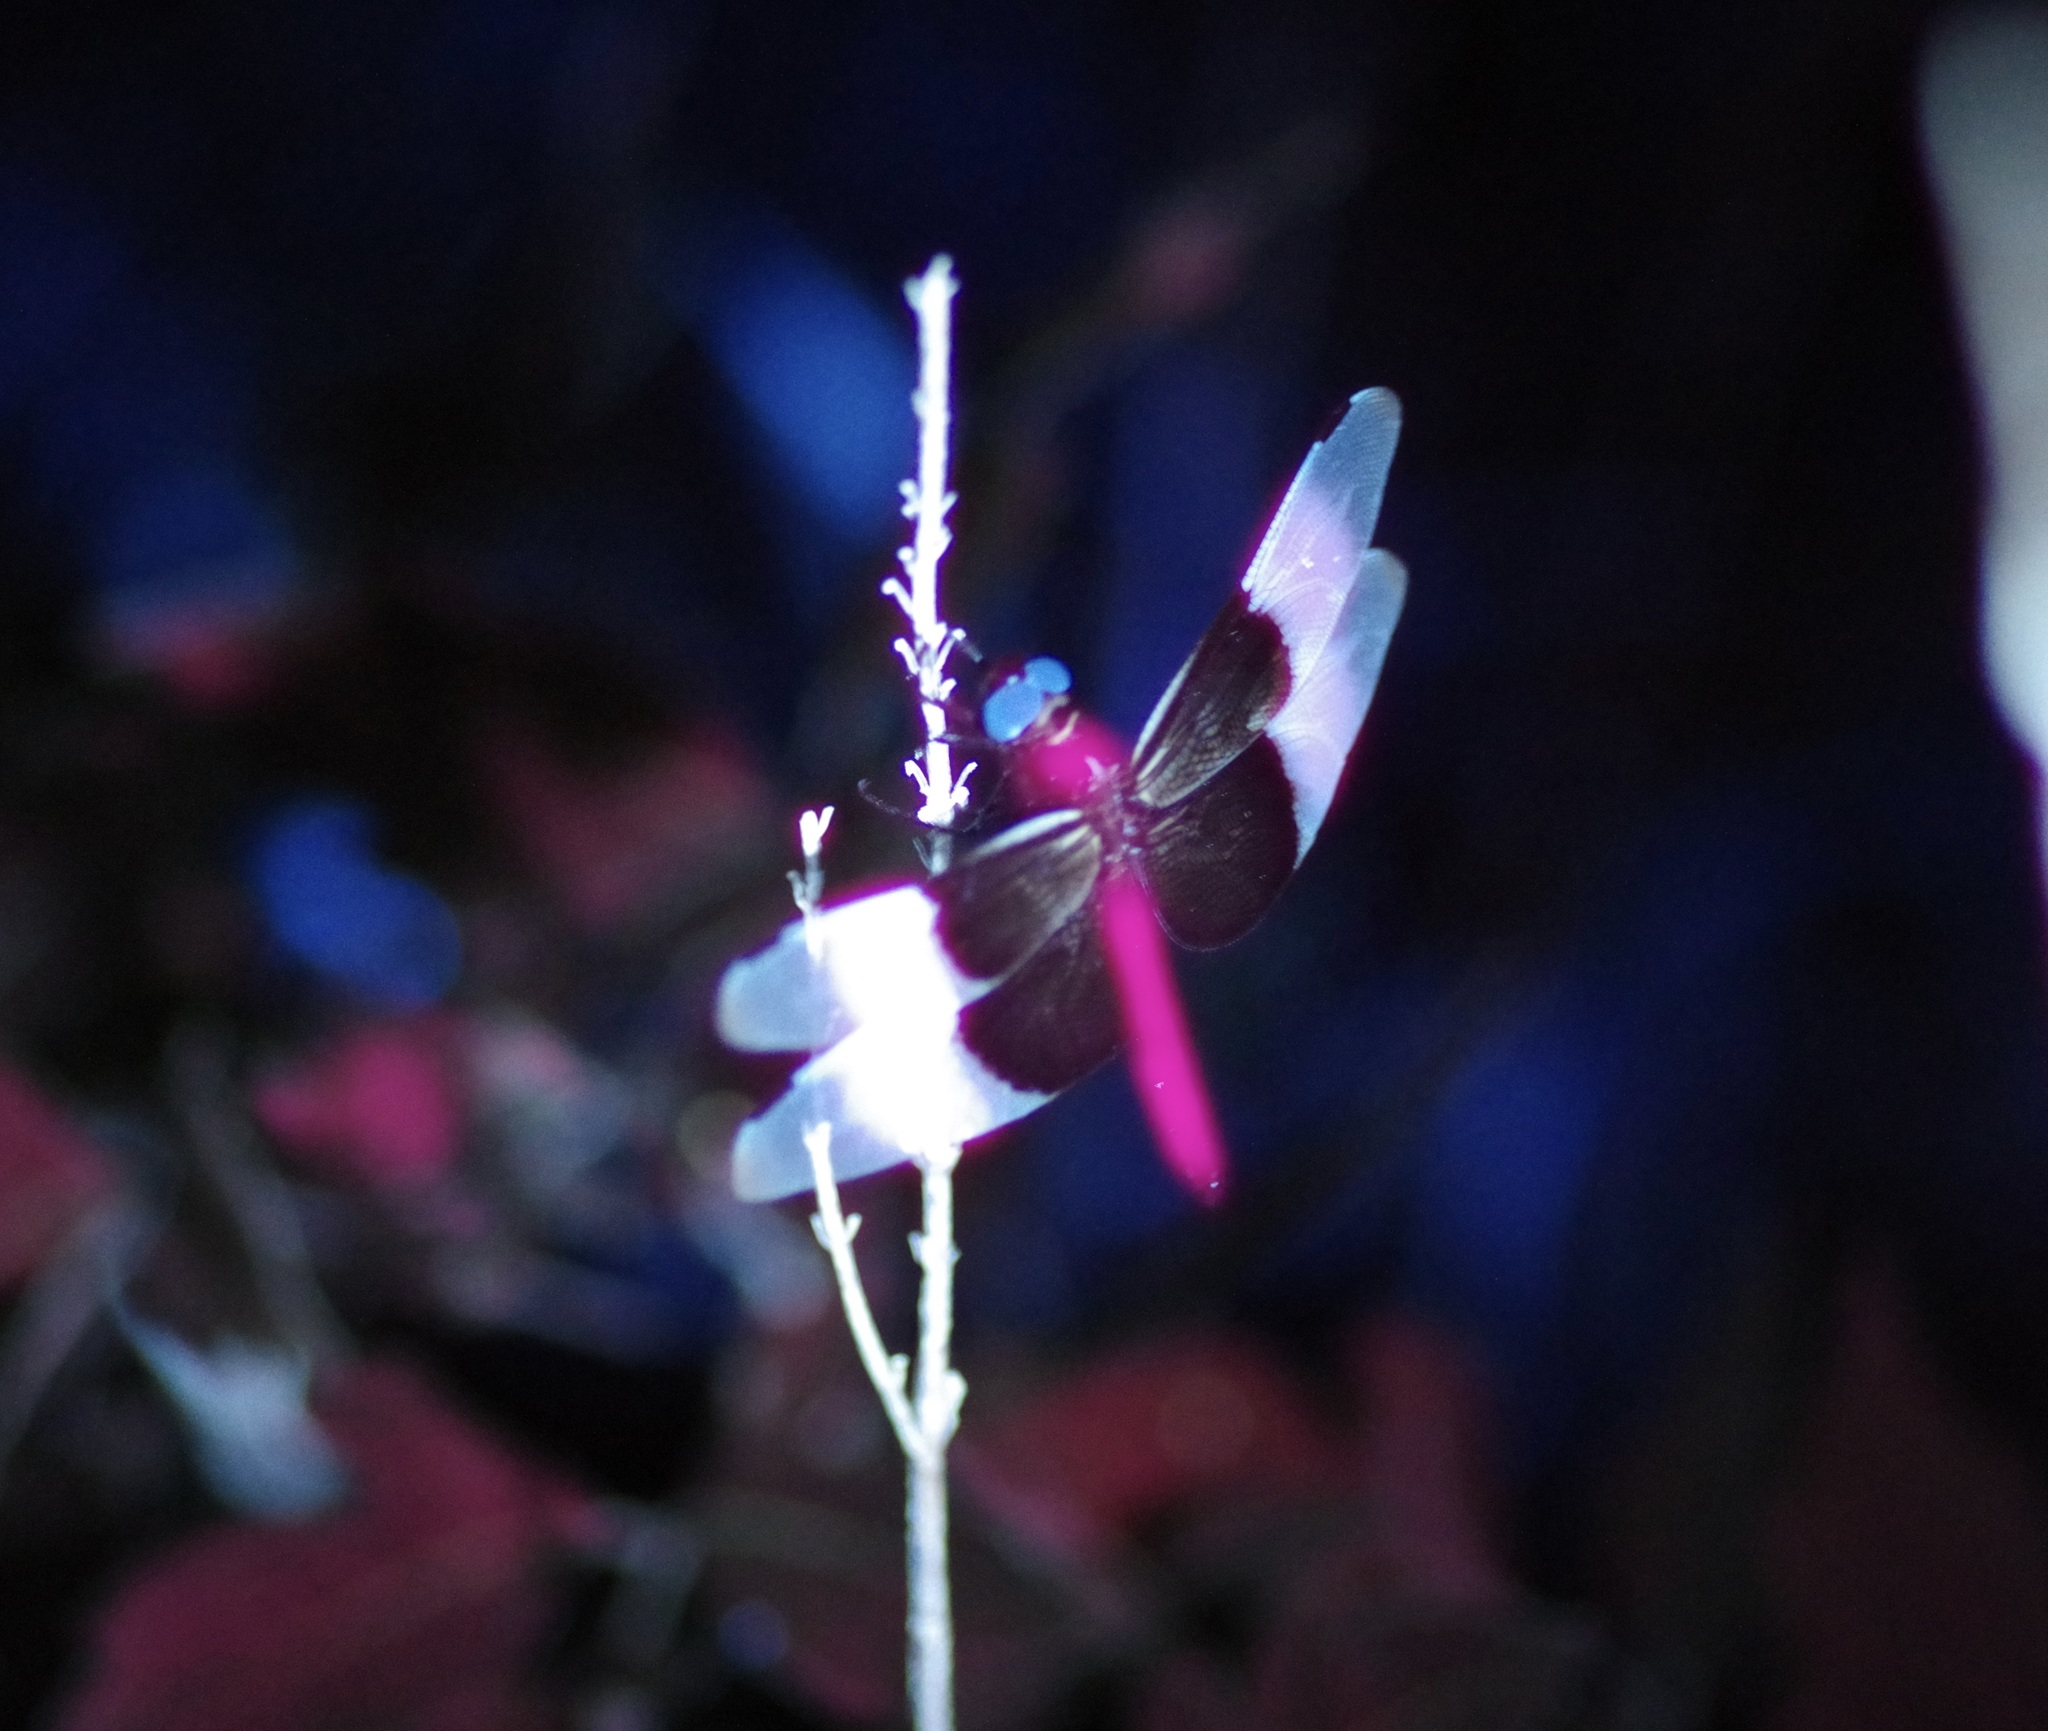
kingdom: Animalia
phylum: Arthropoda
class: Insecta
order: Odonata
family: Libellulidae
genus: Libellula
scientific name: Libellula luctuosa
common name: Widow skimmer
